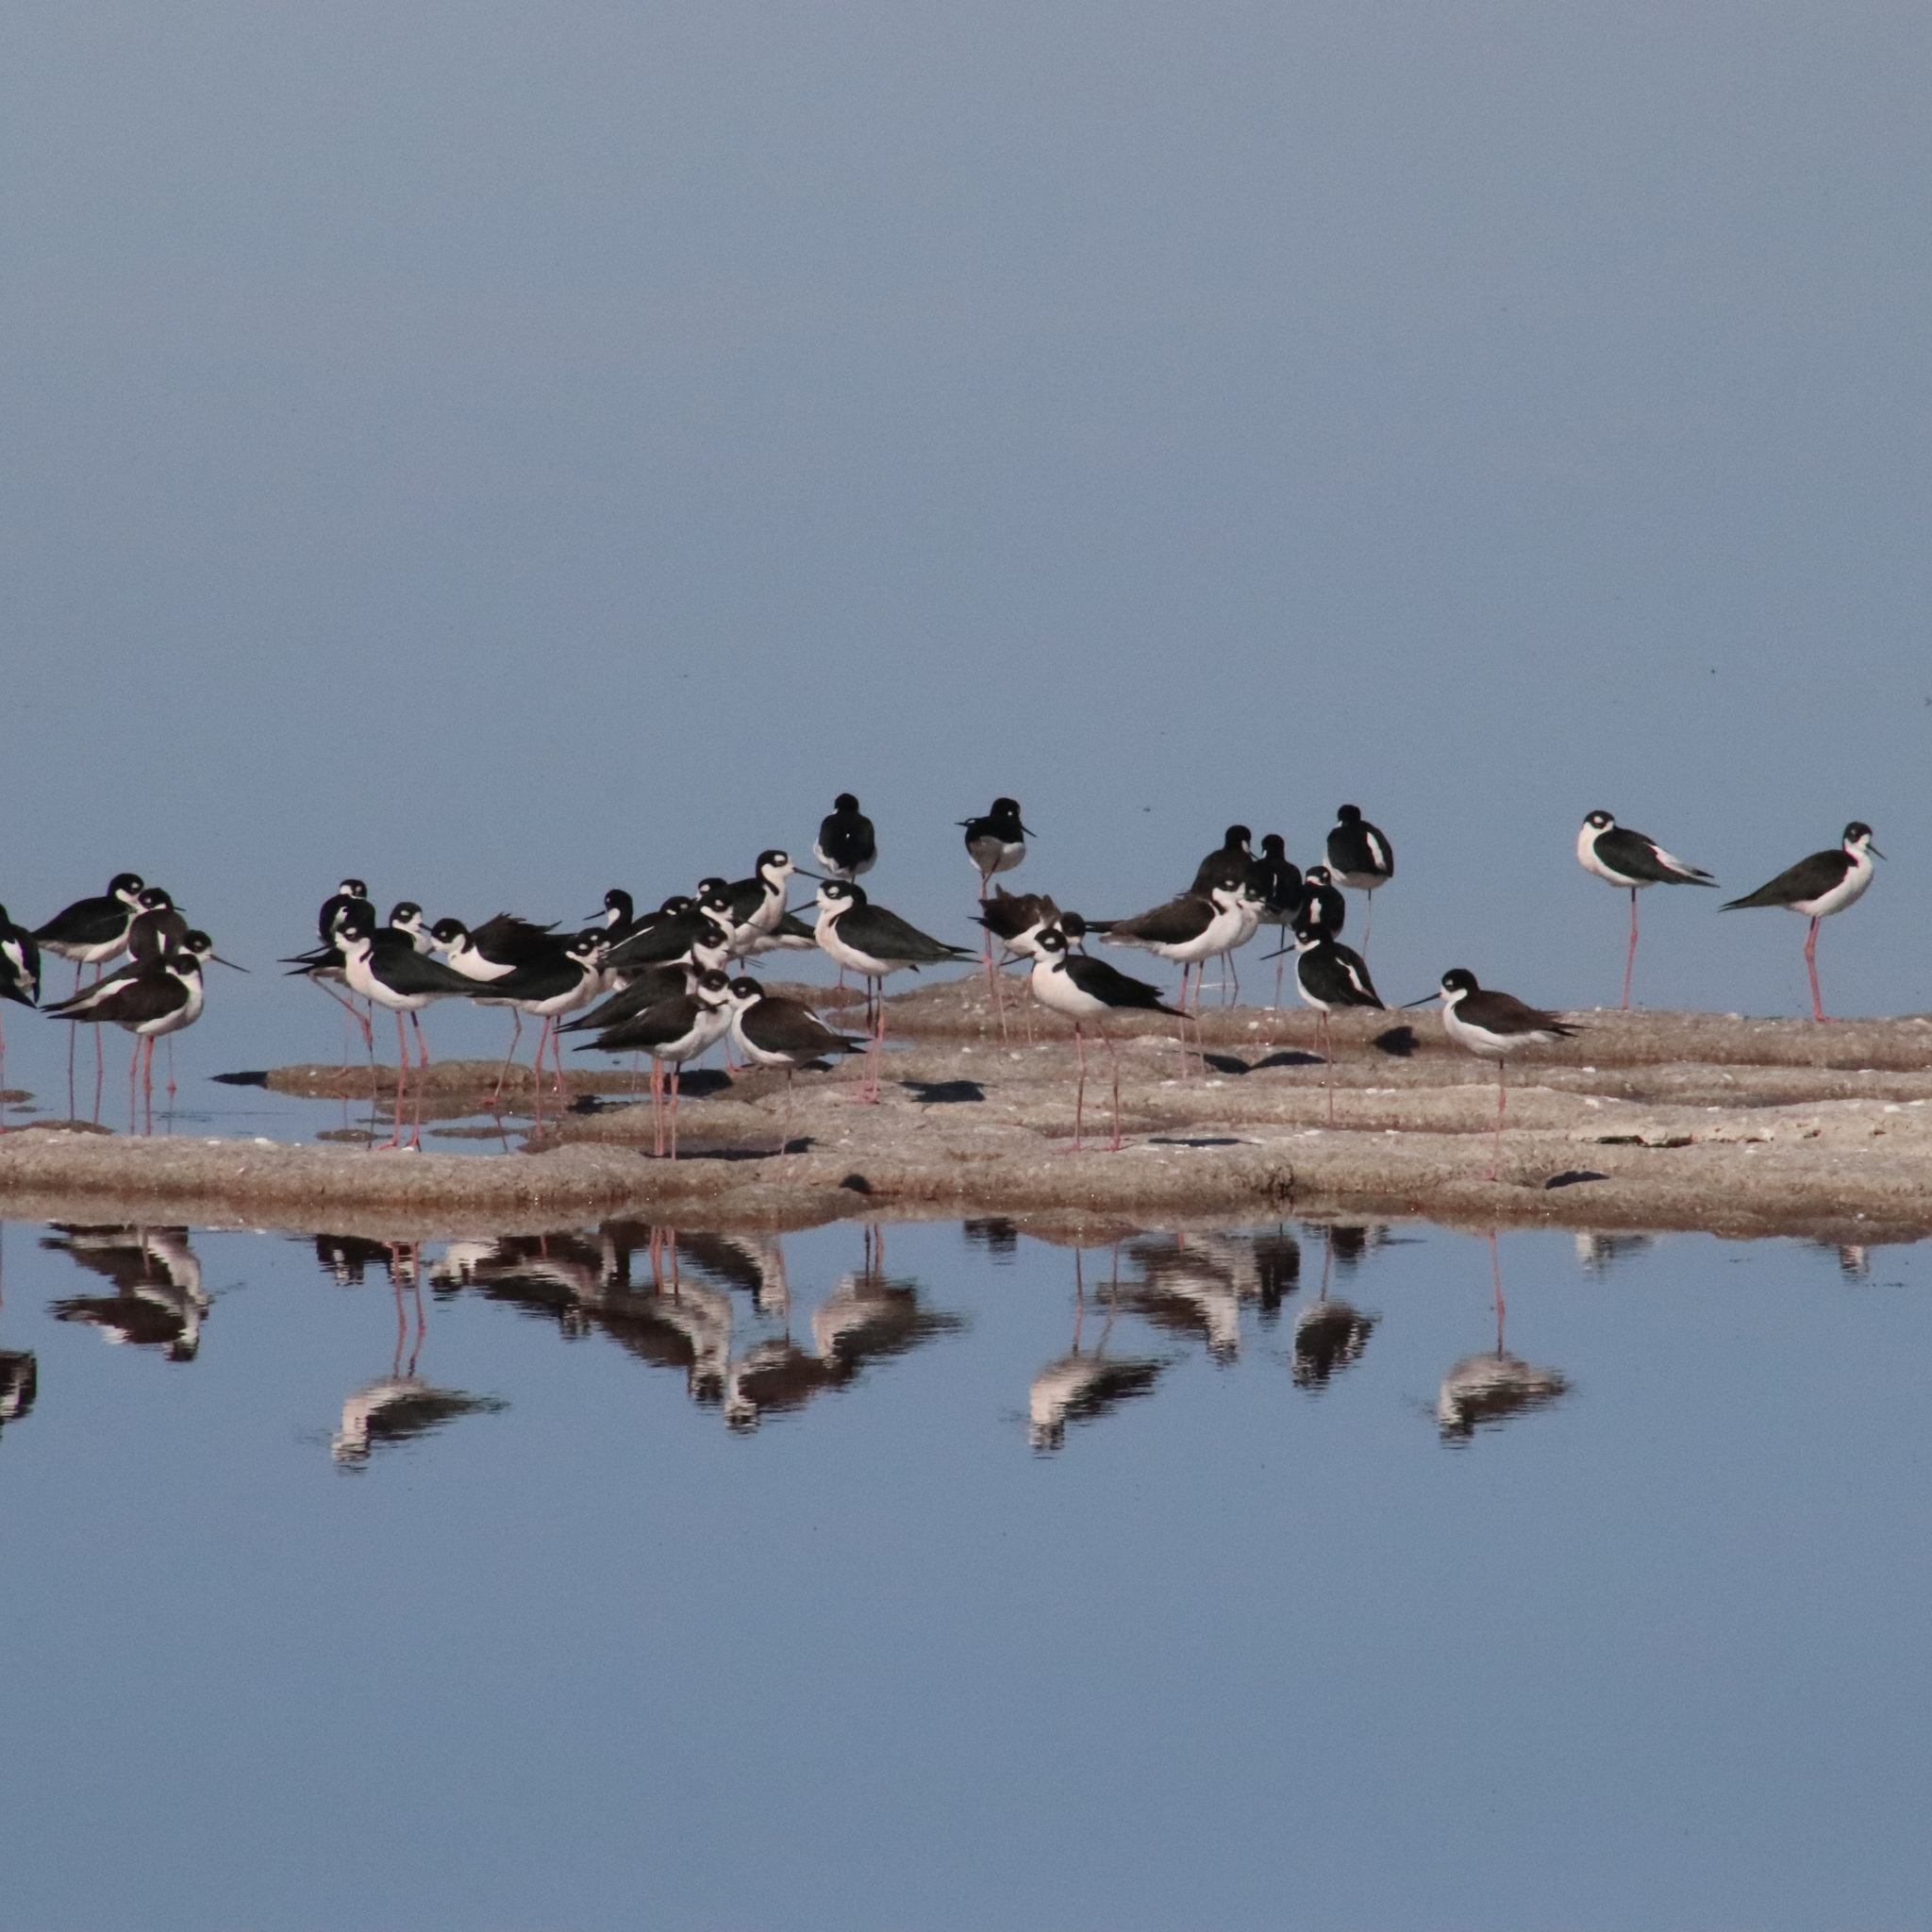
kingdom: Animalia
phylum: Chordata
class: Aves
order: Charadriiformes
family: Recurvirostridae
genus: Himantopus
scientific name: Himantopus mexicanus
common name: Black-necked stilt
